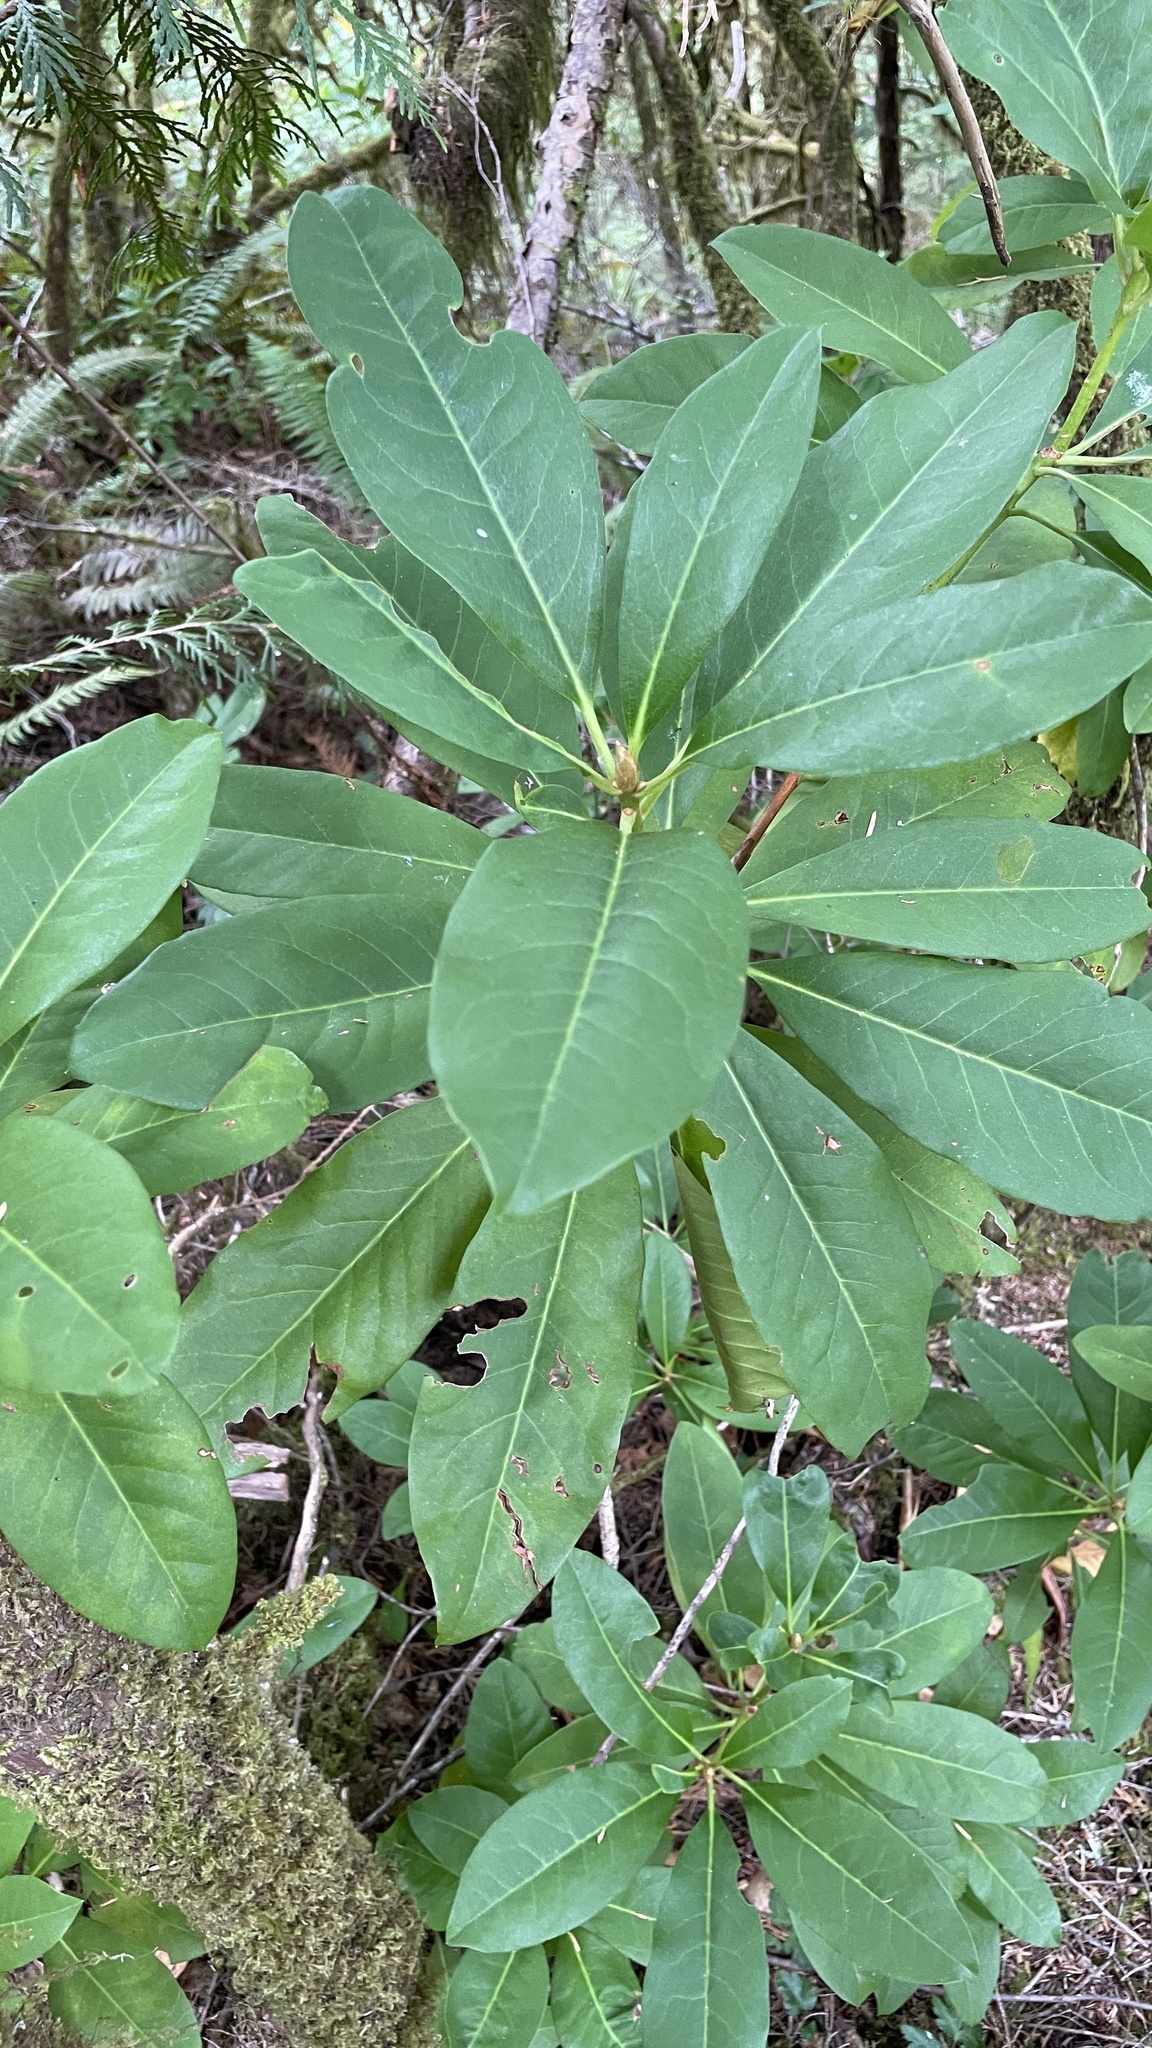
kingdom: Plantae
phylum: Tracheophyta
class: Magnoliopsida
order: Ericales
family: Ericaceae
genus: Rhododendron
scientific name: Rhododendron macrophyllum
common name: California rose bay
